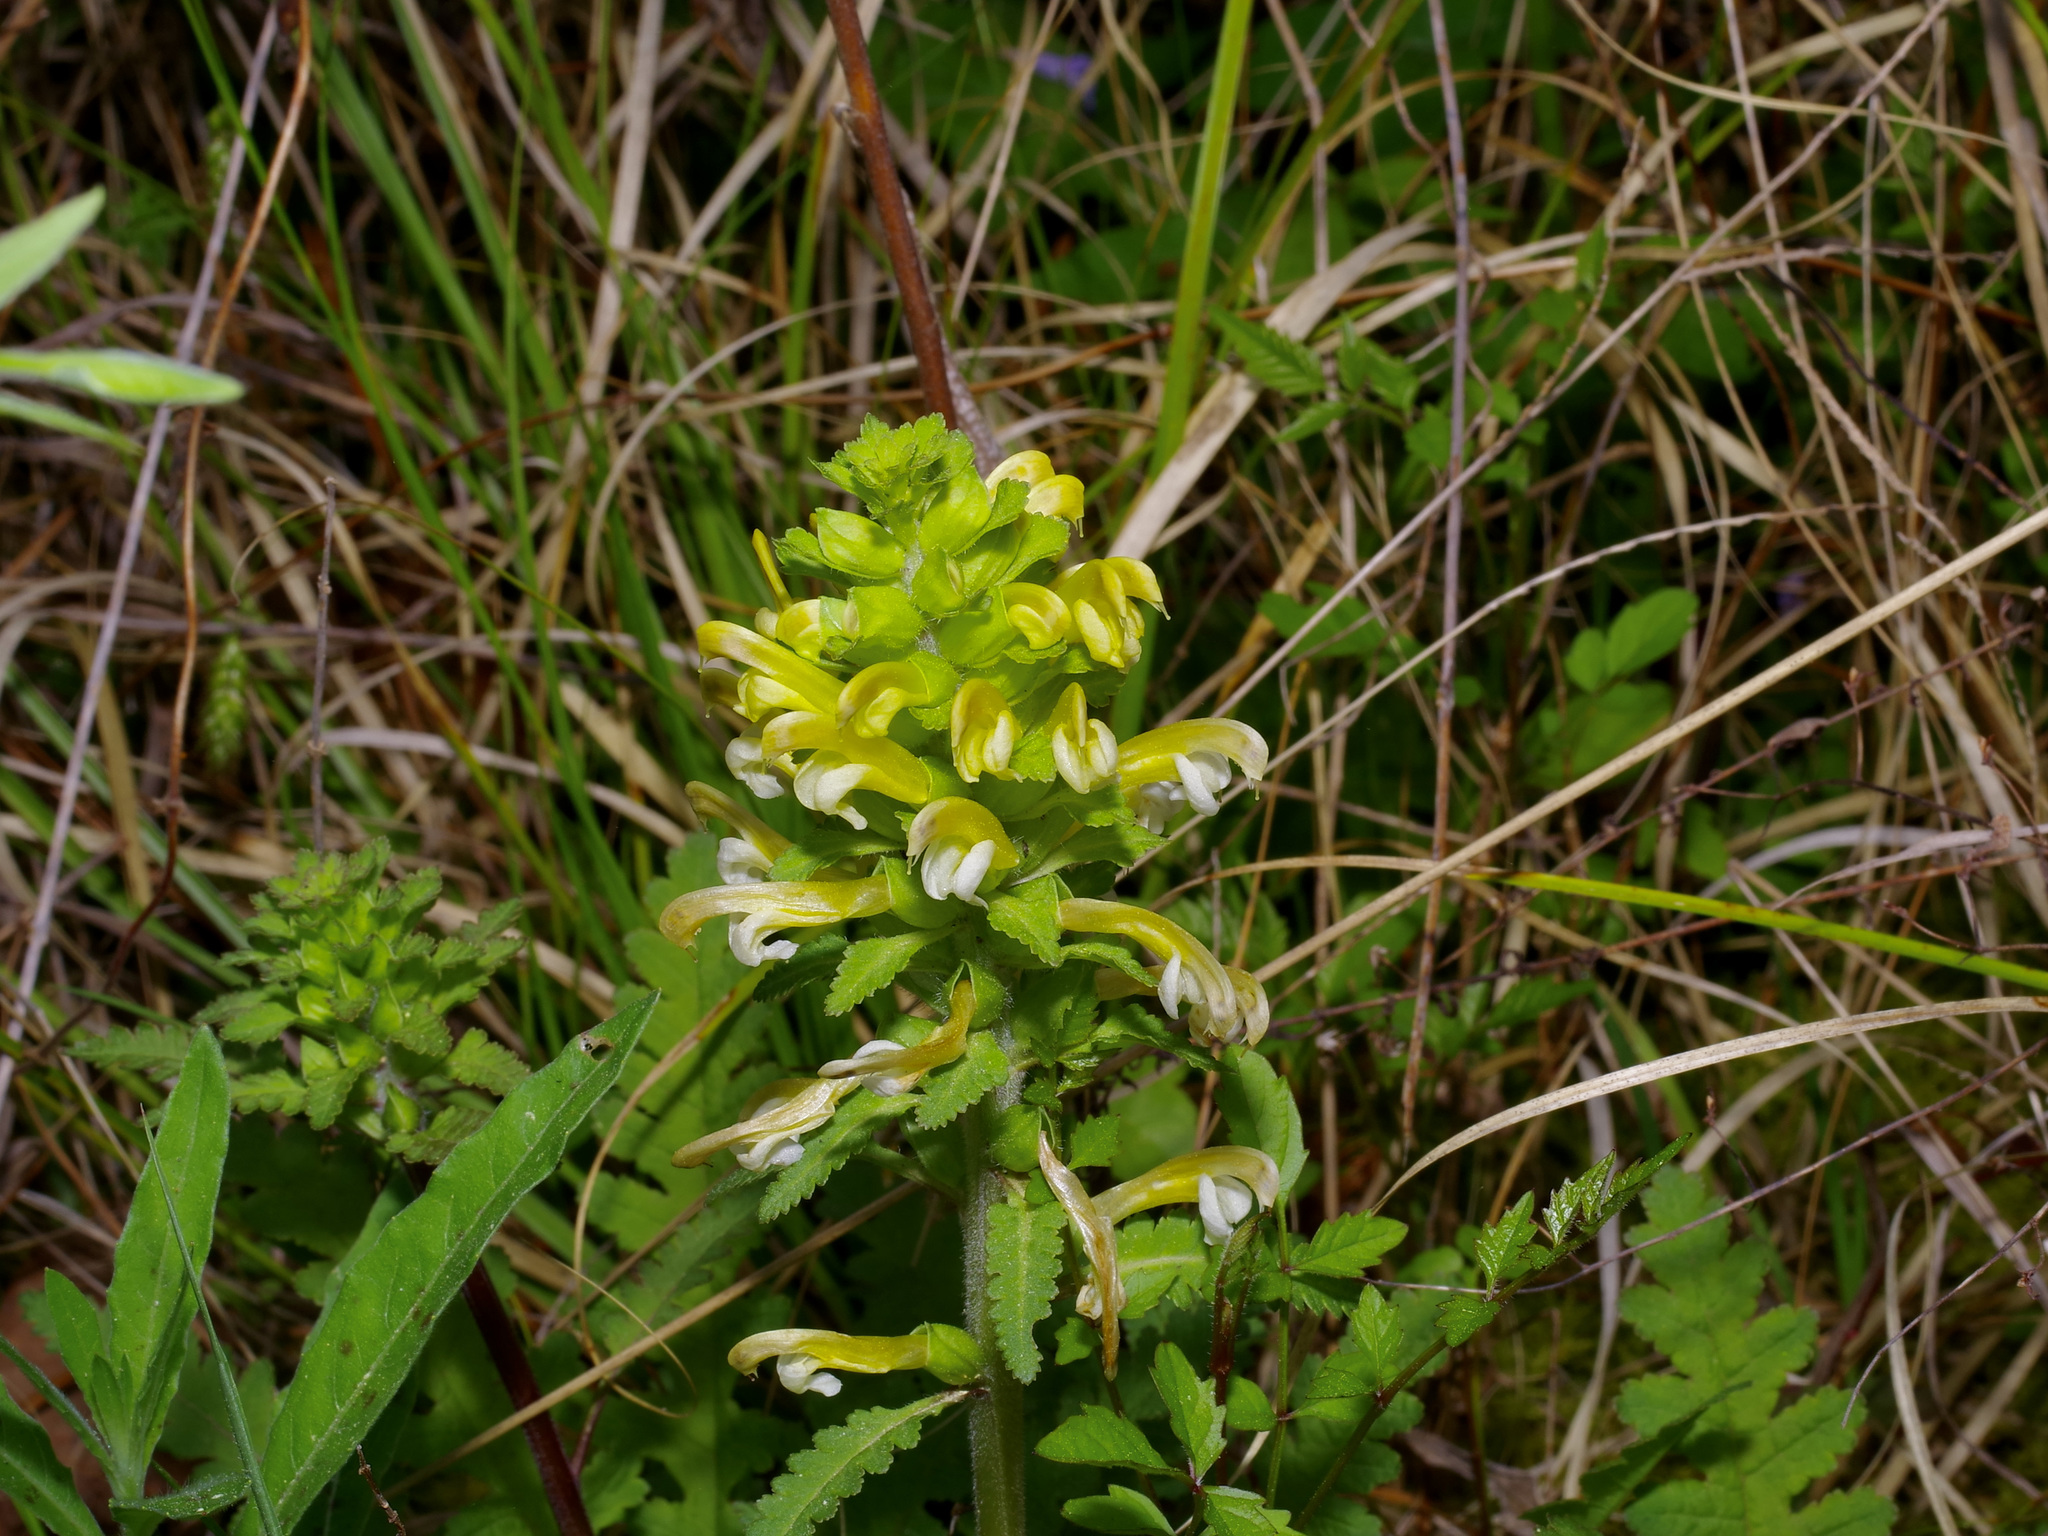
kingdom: Plantae
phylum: Tracheophyta
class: Magnoliopsida
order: Lamiales
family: Orobanchaceae
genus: Pedicularis
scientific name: Pedicularis canadensis
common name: Early lousewort
